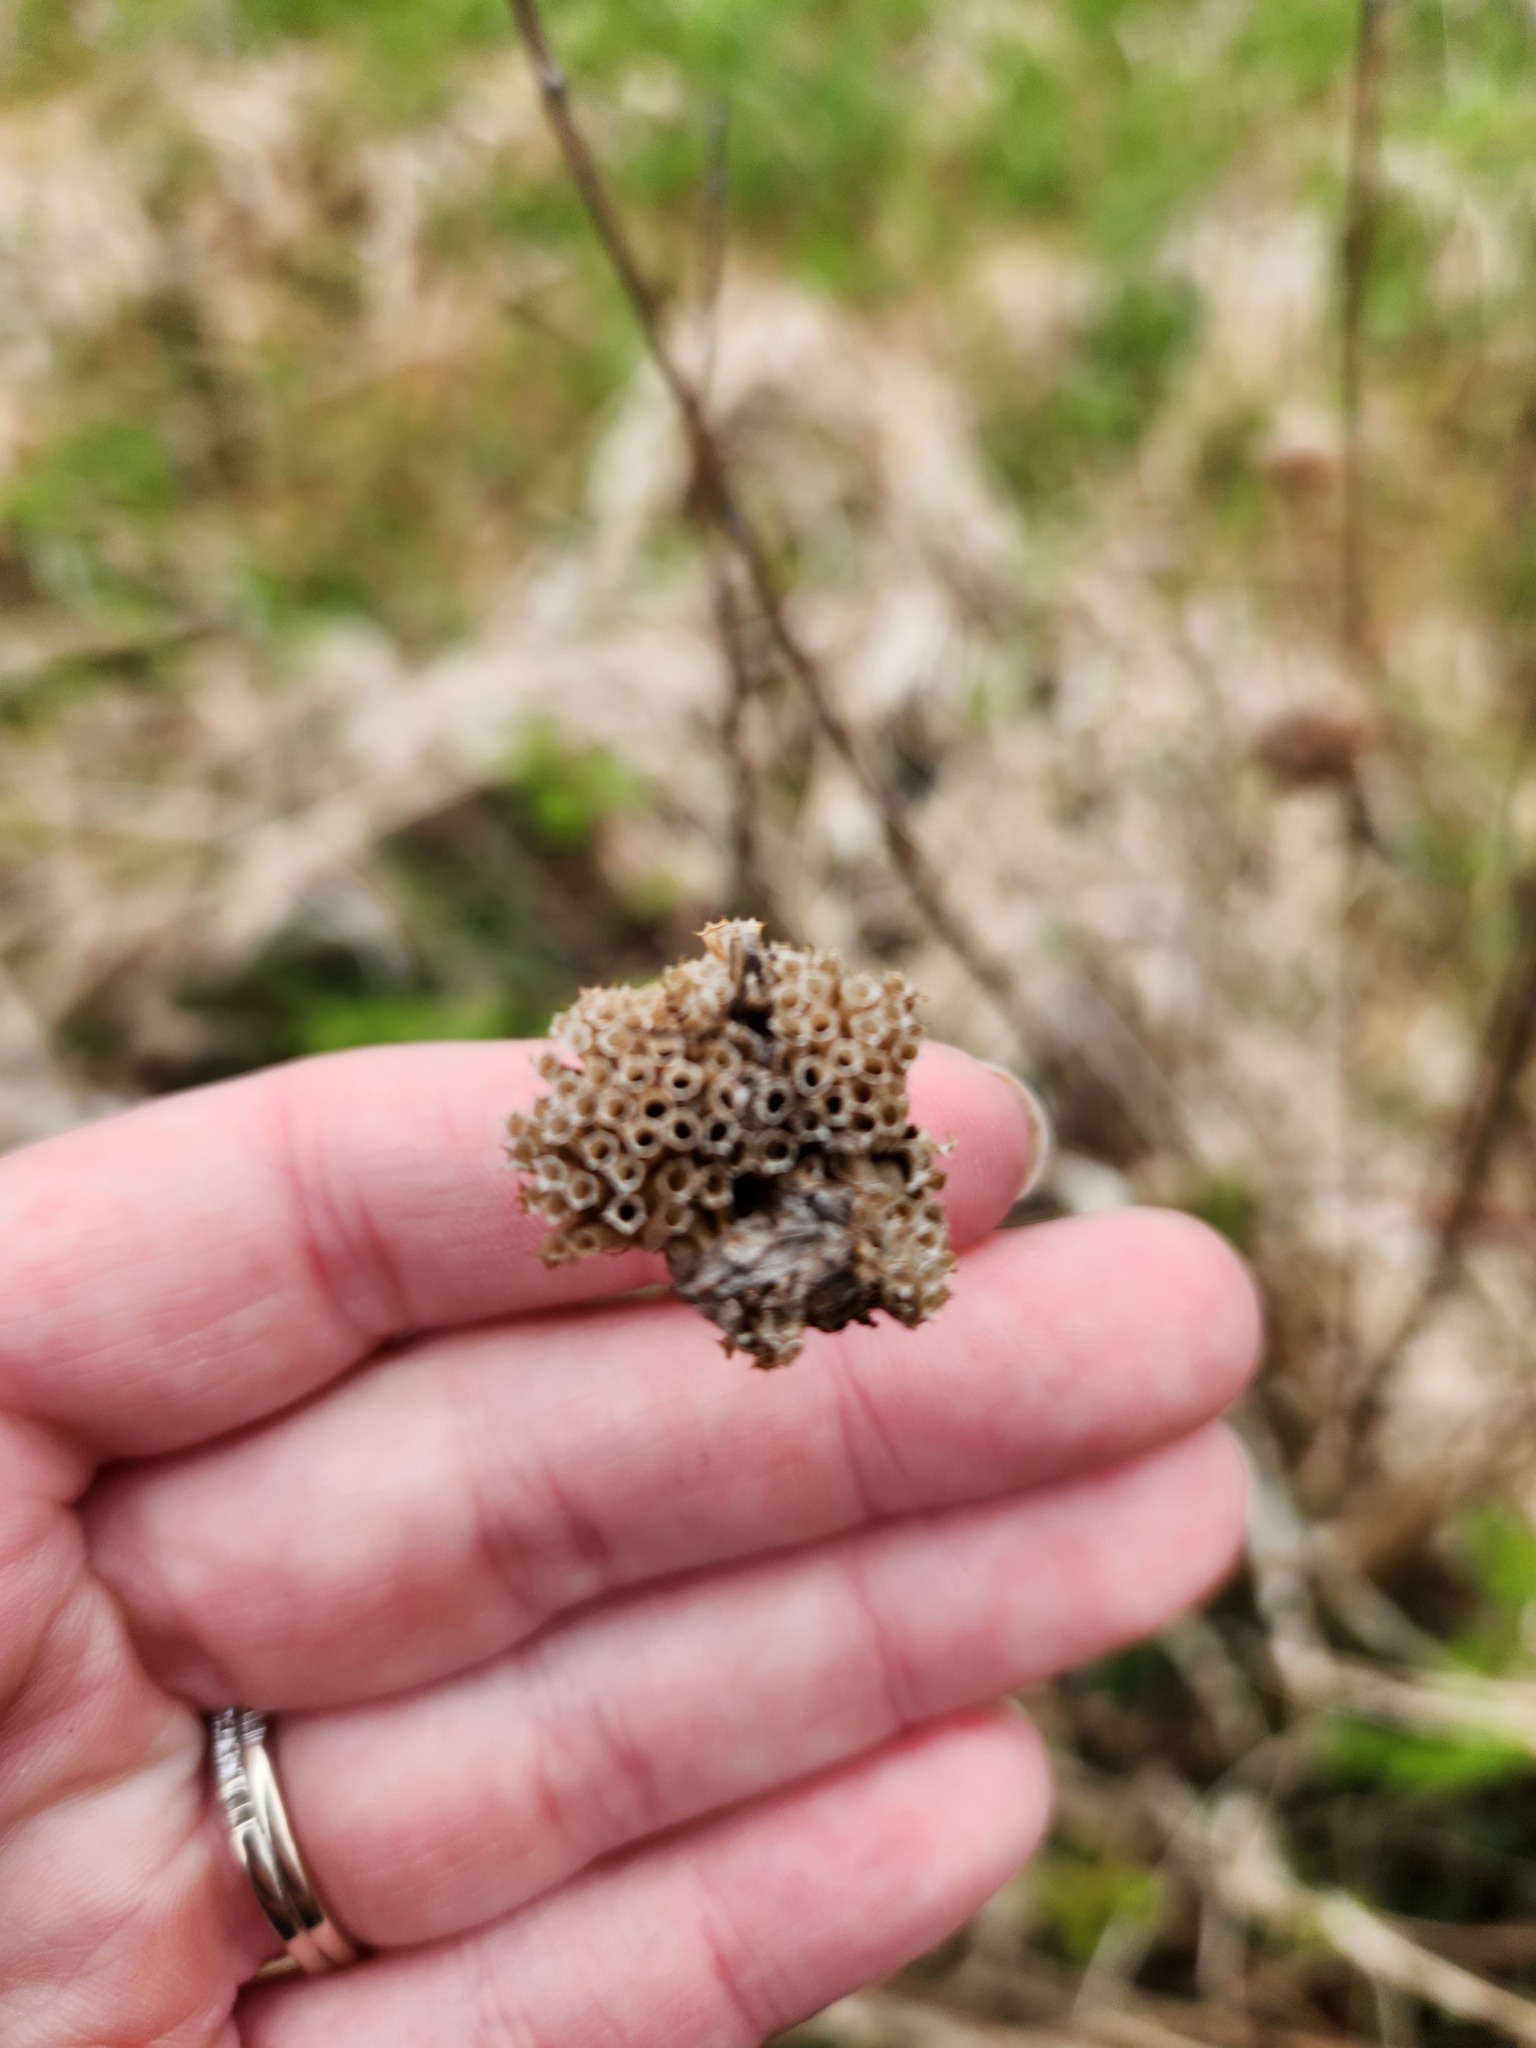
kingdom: Plantae
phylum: Tracheophyta
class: Magnoliopsida
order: Lamiales
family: Lamiaceae
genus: Monarda
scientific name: Monarda fistulosa
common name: Purple beebalm
